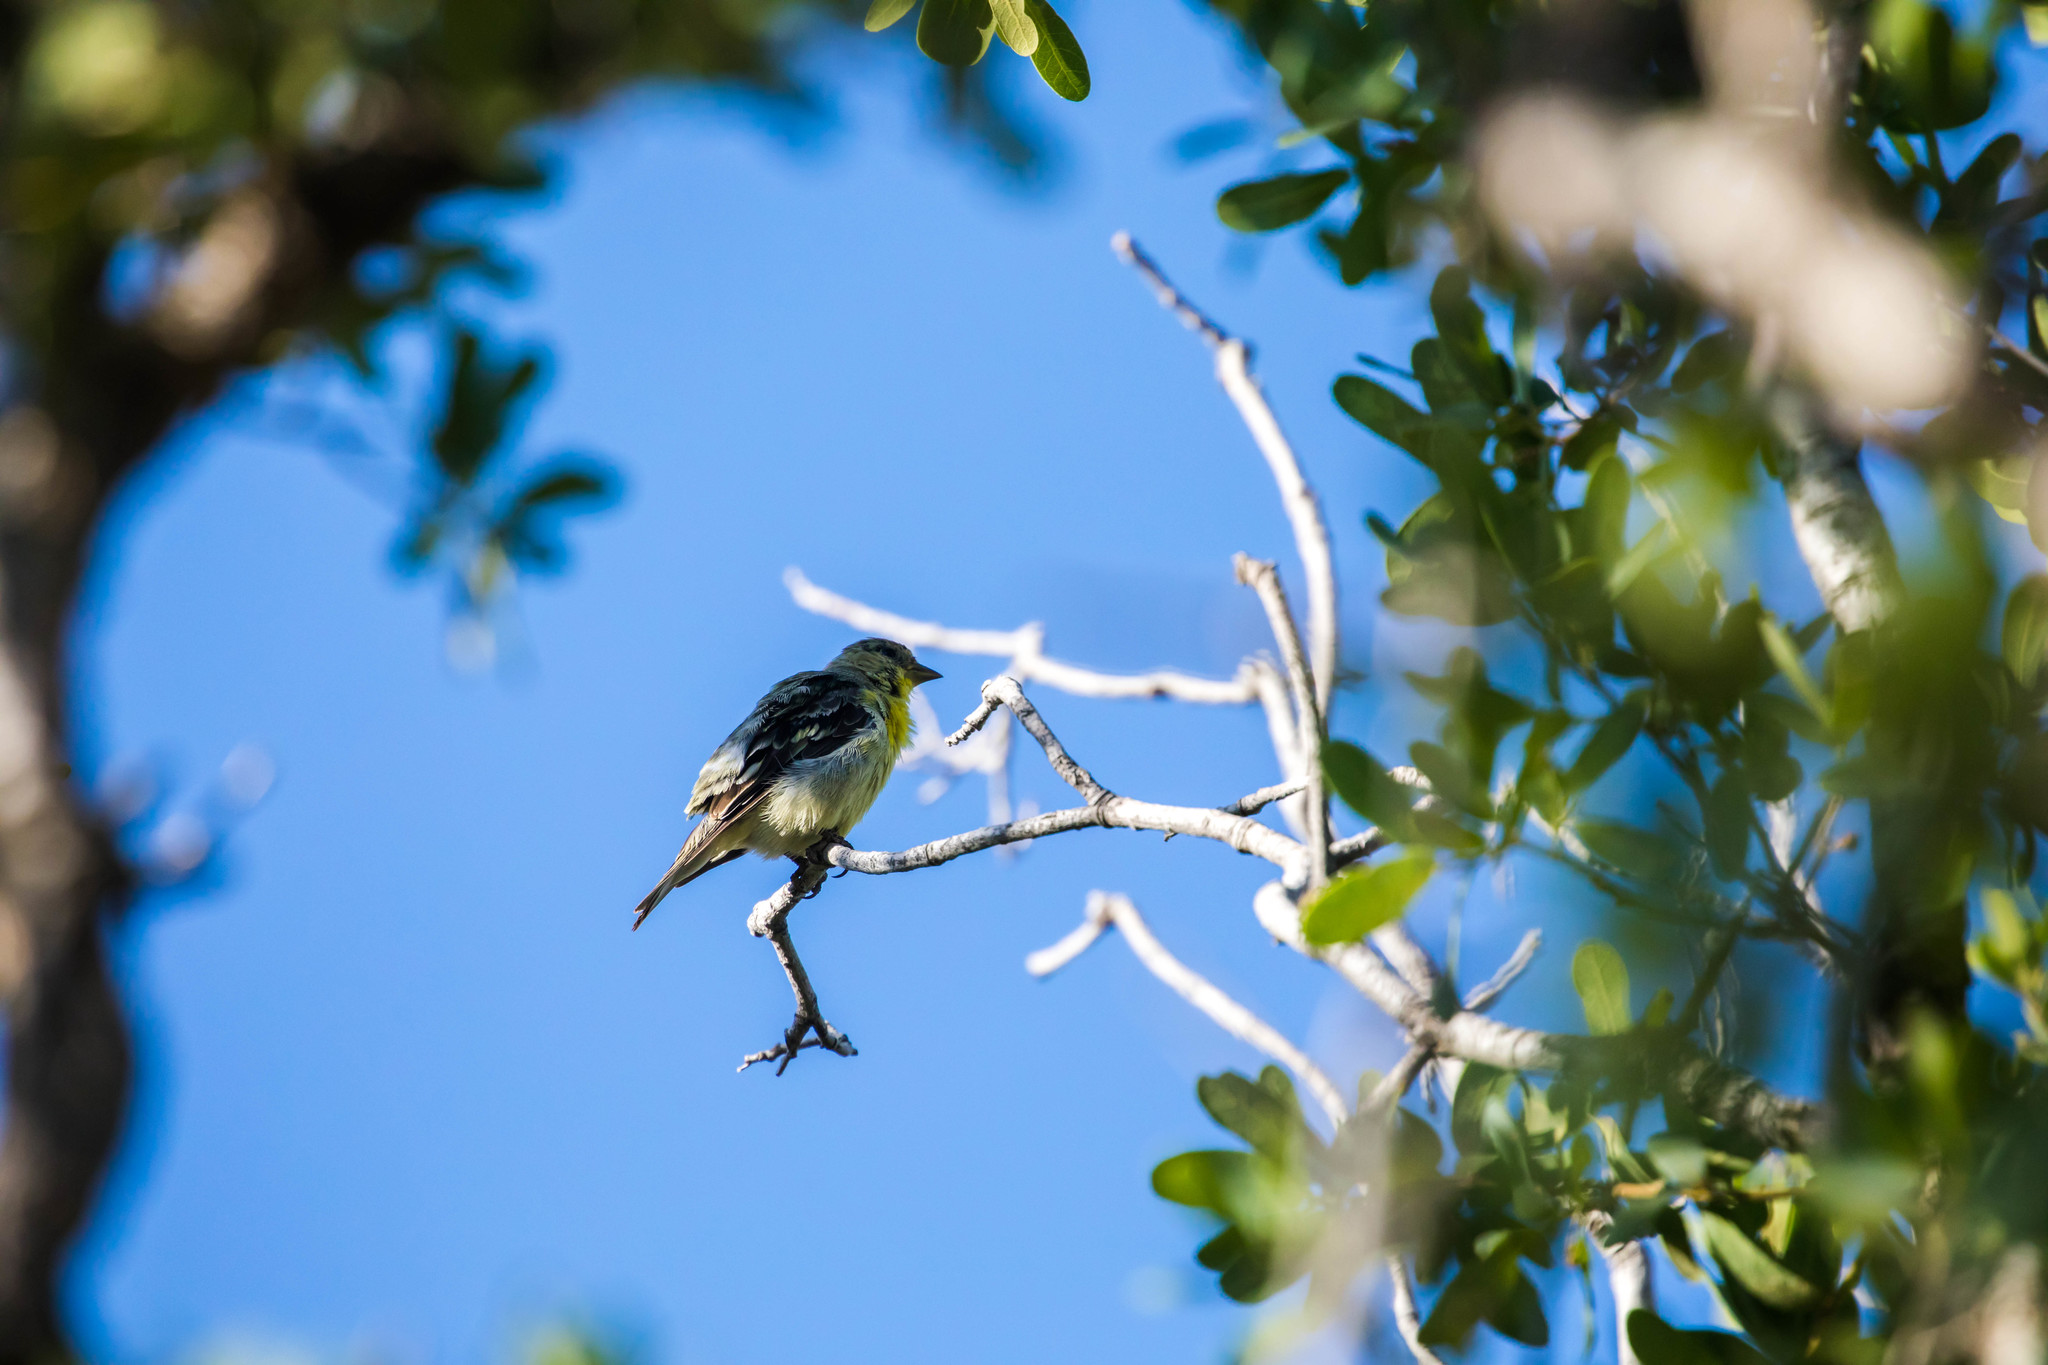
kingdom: Animalia
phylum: Chordata
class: Aves
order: Passeriformes
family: Fringillidae
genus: Spinus
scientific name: Spinus psaltria
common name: Lesser goldfinch
